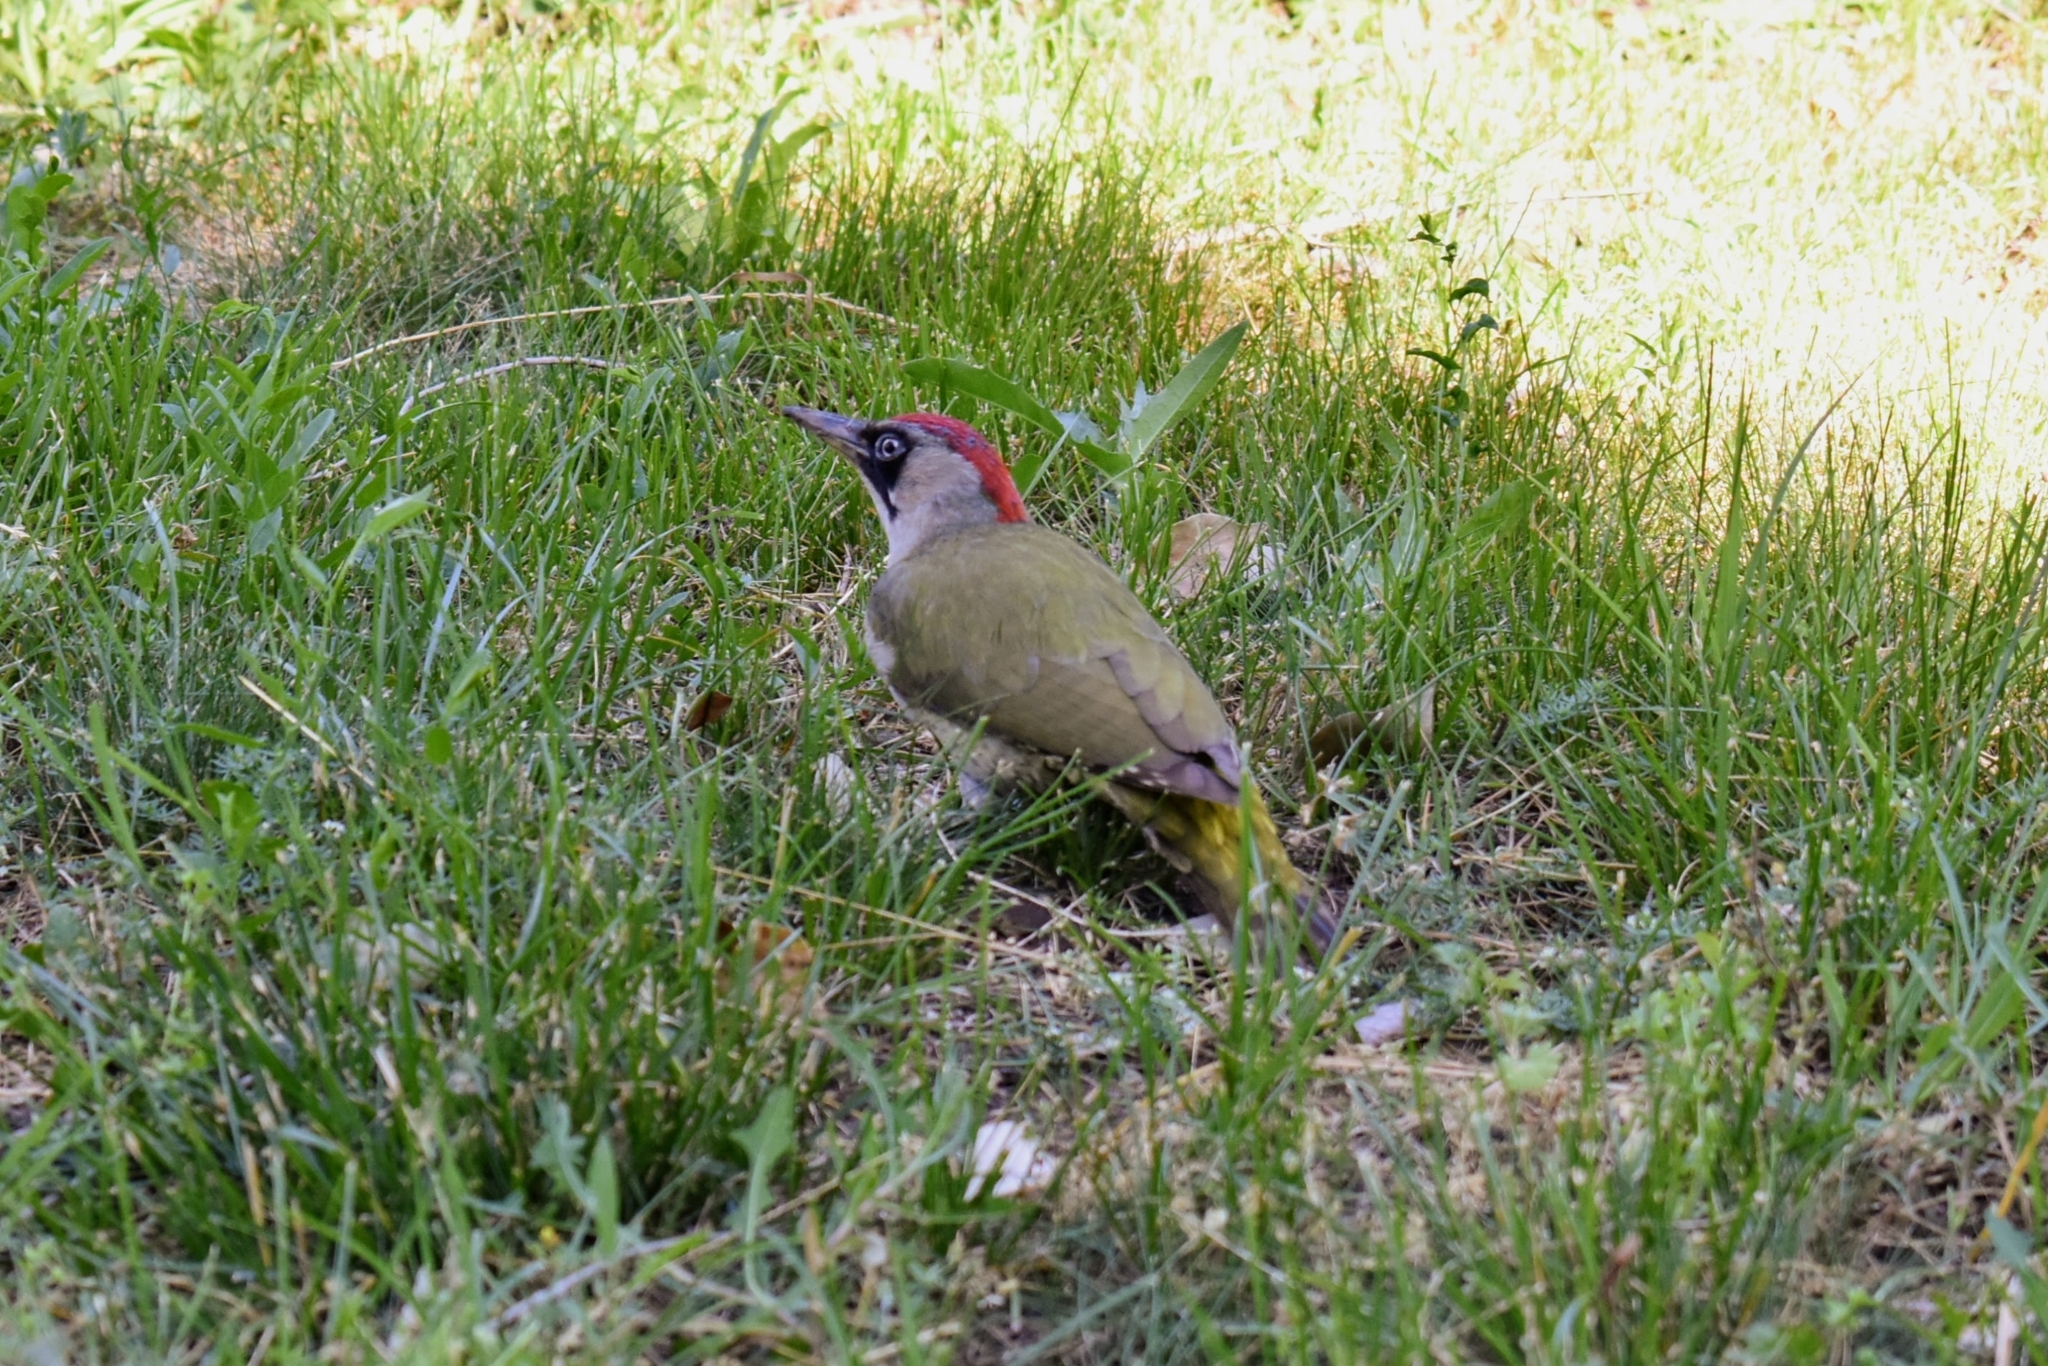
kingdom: Animalia
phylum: Chordata
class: Aves
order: Piciformes
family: Picidae
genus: Picus
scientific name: Picus viridis
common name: European green woodpecker
